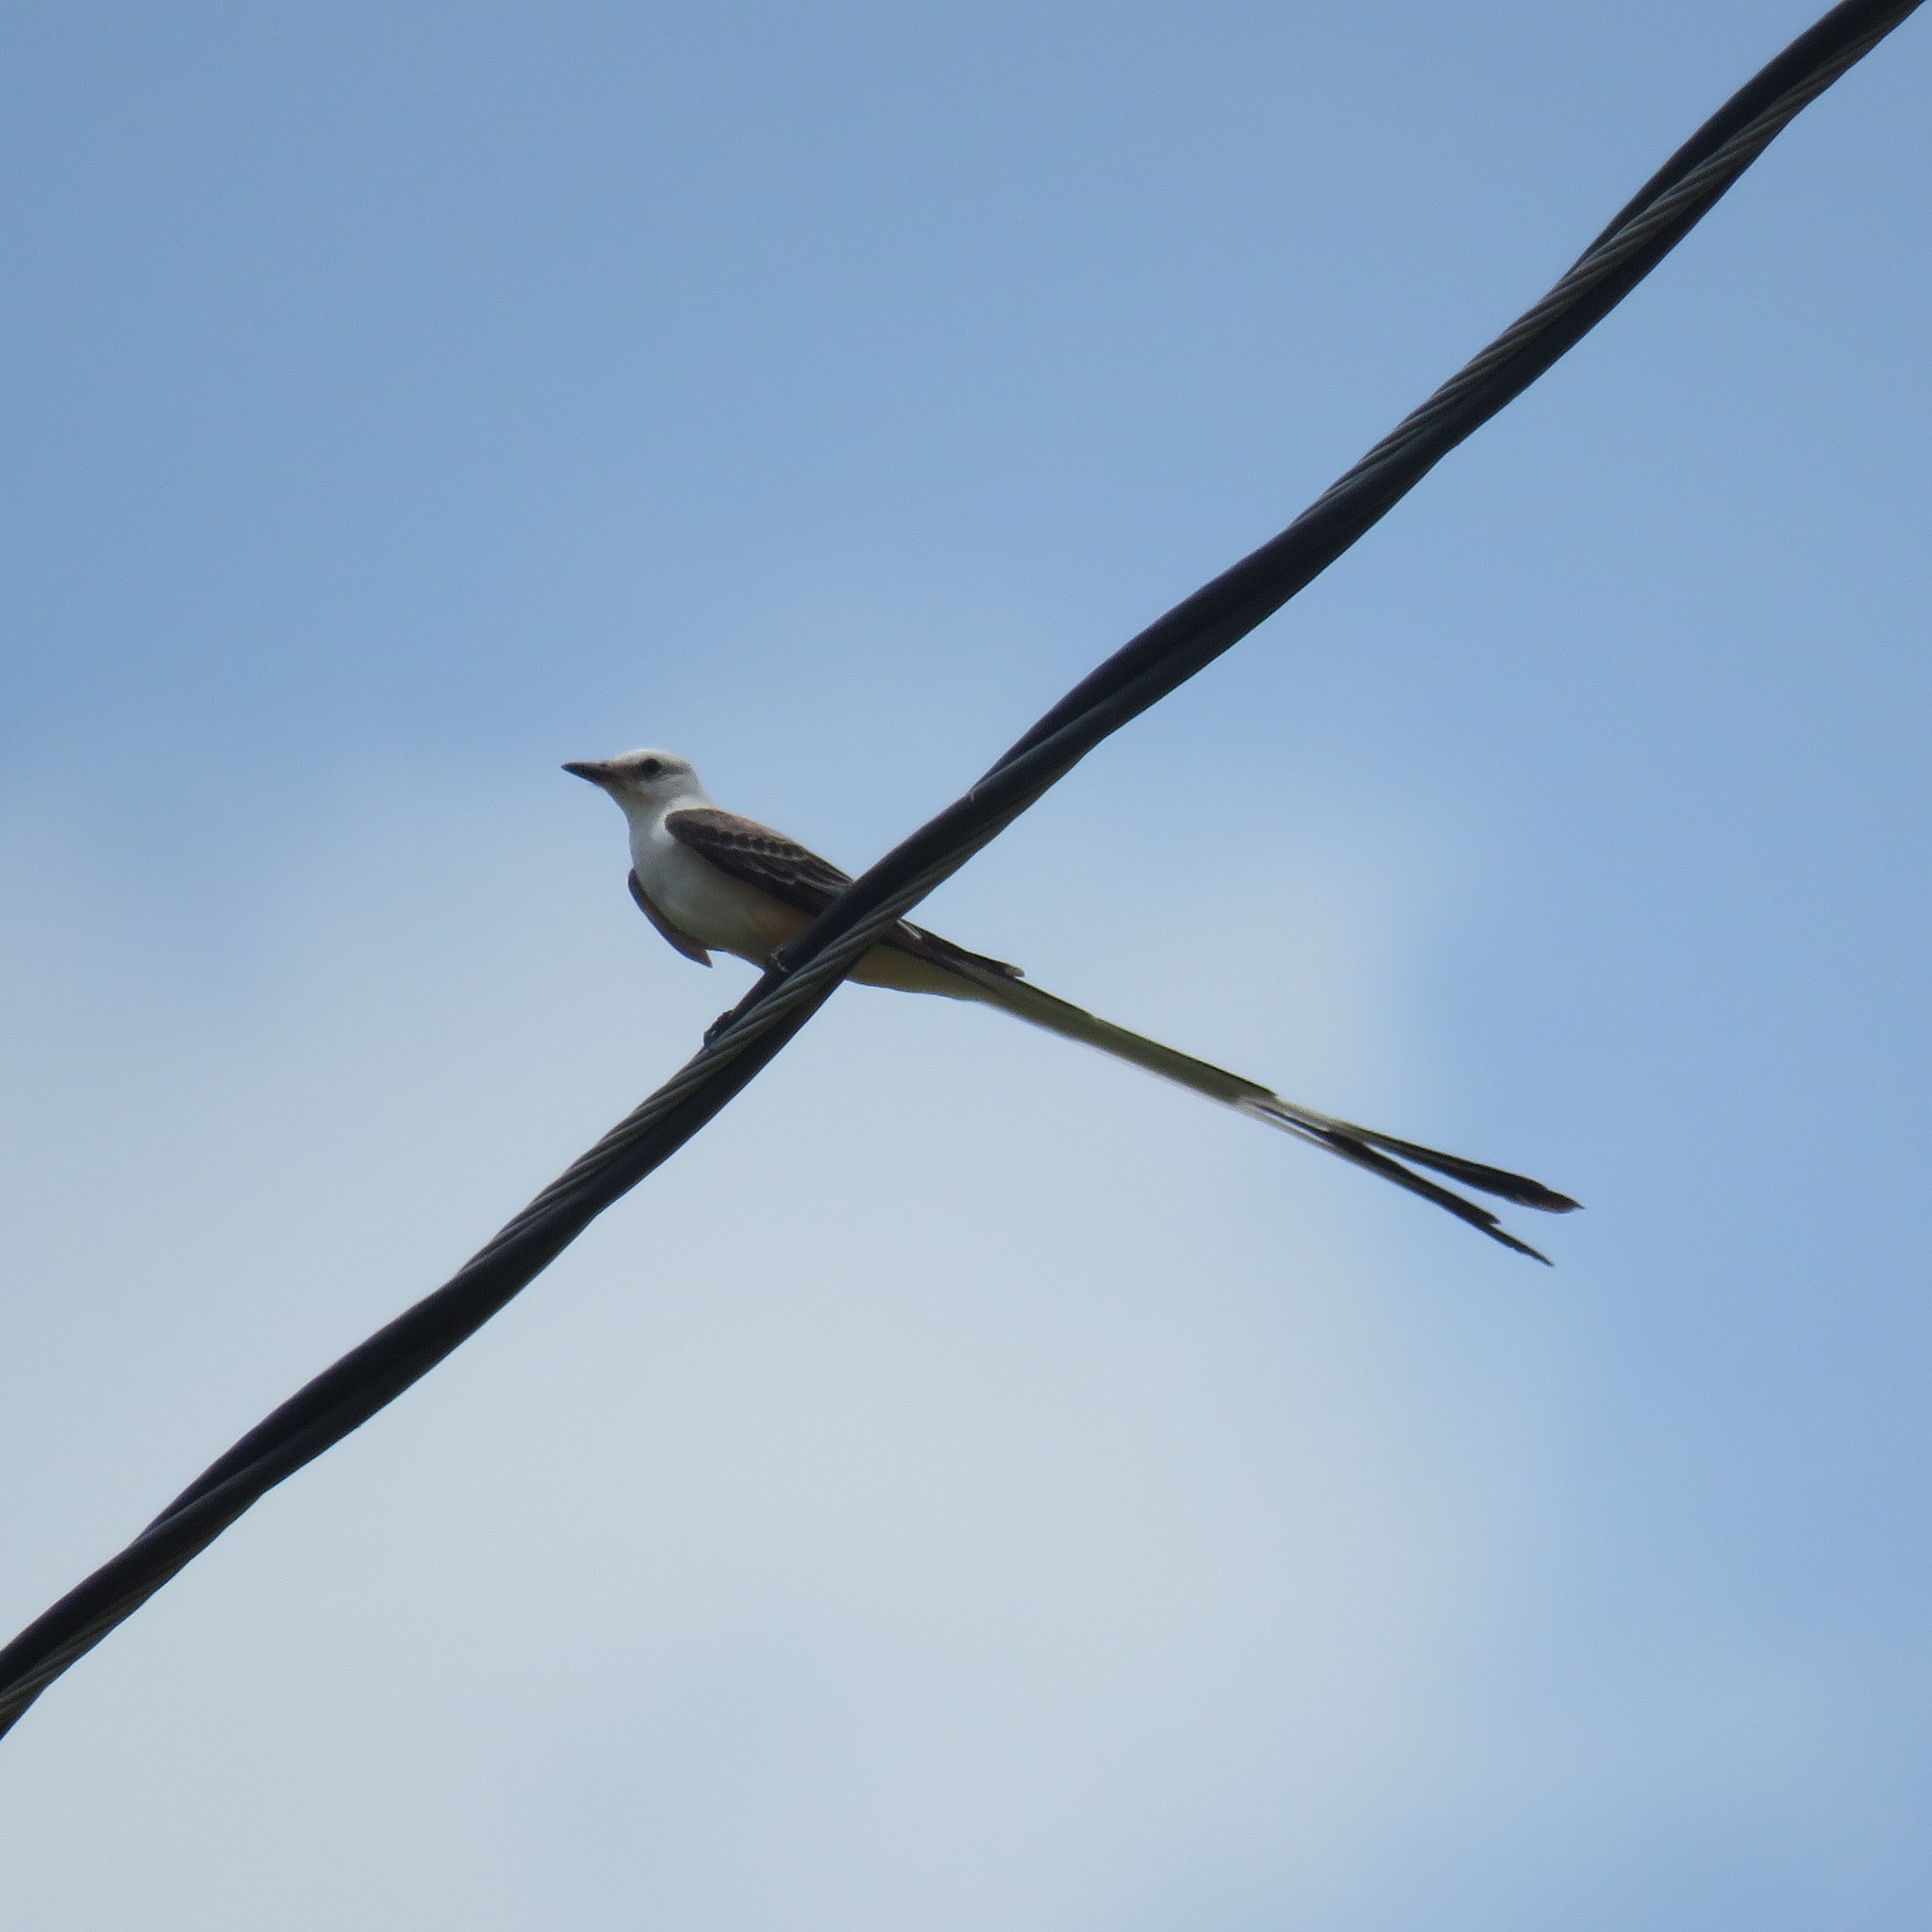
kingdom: Animalia
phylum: Chordata
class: Aves
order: Passeriformes
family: Tyrannidae
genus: Tyrannus
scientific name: Tyrannus forficatus
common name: Scissor-tailed flycatcher
